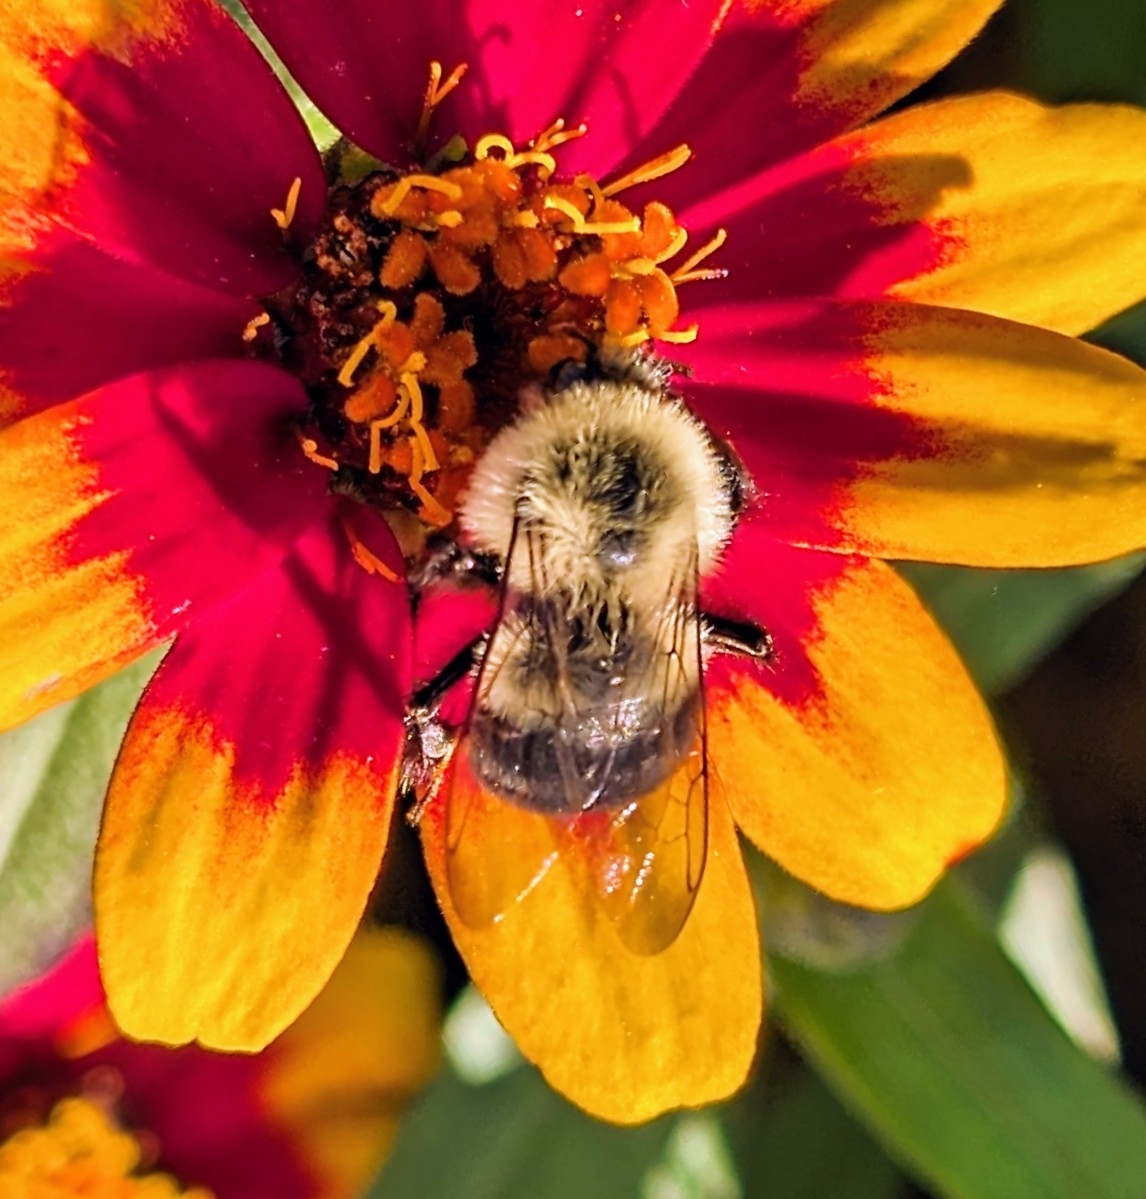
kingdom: Animalia
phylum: Arthropoda
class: Insecta
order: Hymenoptera
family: Apidae
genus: Bombus
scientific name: Bombus impatiens
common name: Common eastern bumble bee
